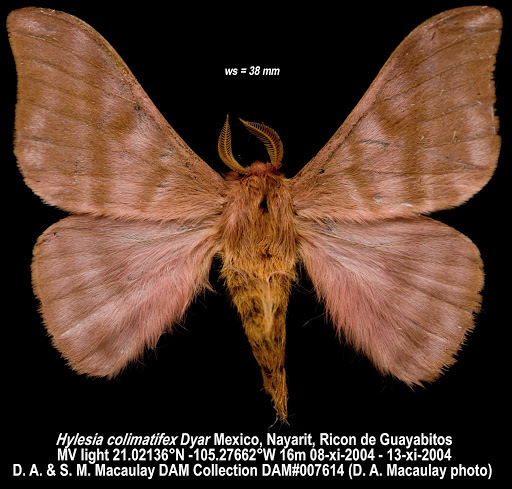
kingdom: Animalia
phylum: Arthropoda
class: Insecta
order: Lepidoptera
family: Saturniidae
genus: Hylesia
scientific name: Hylesia colimatifex
